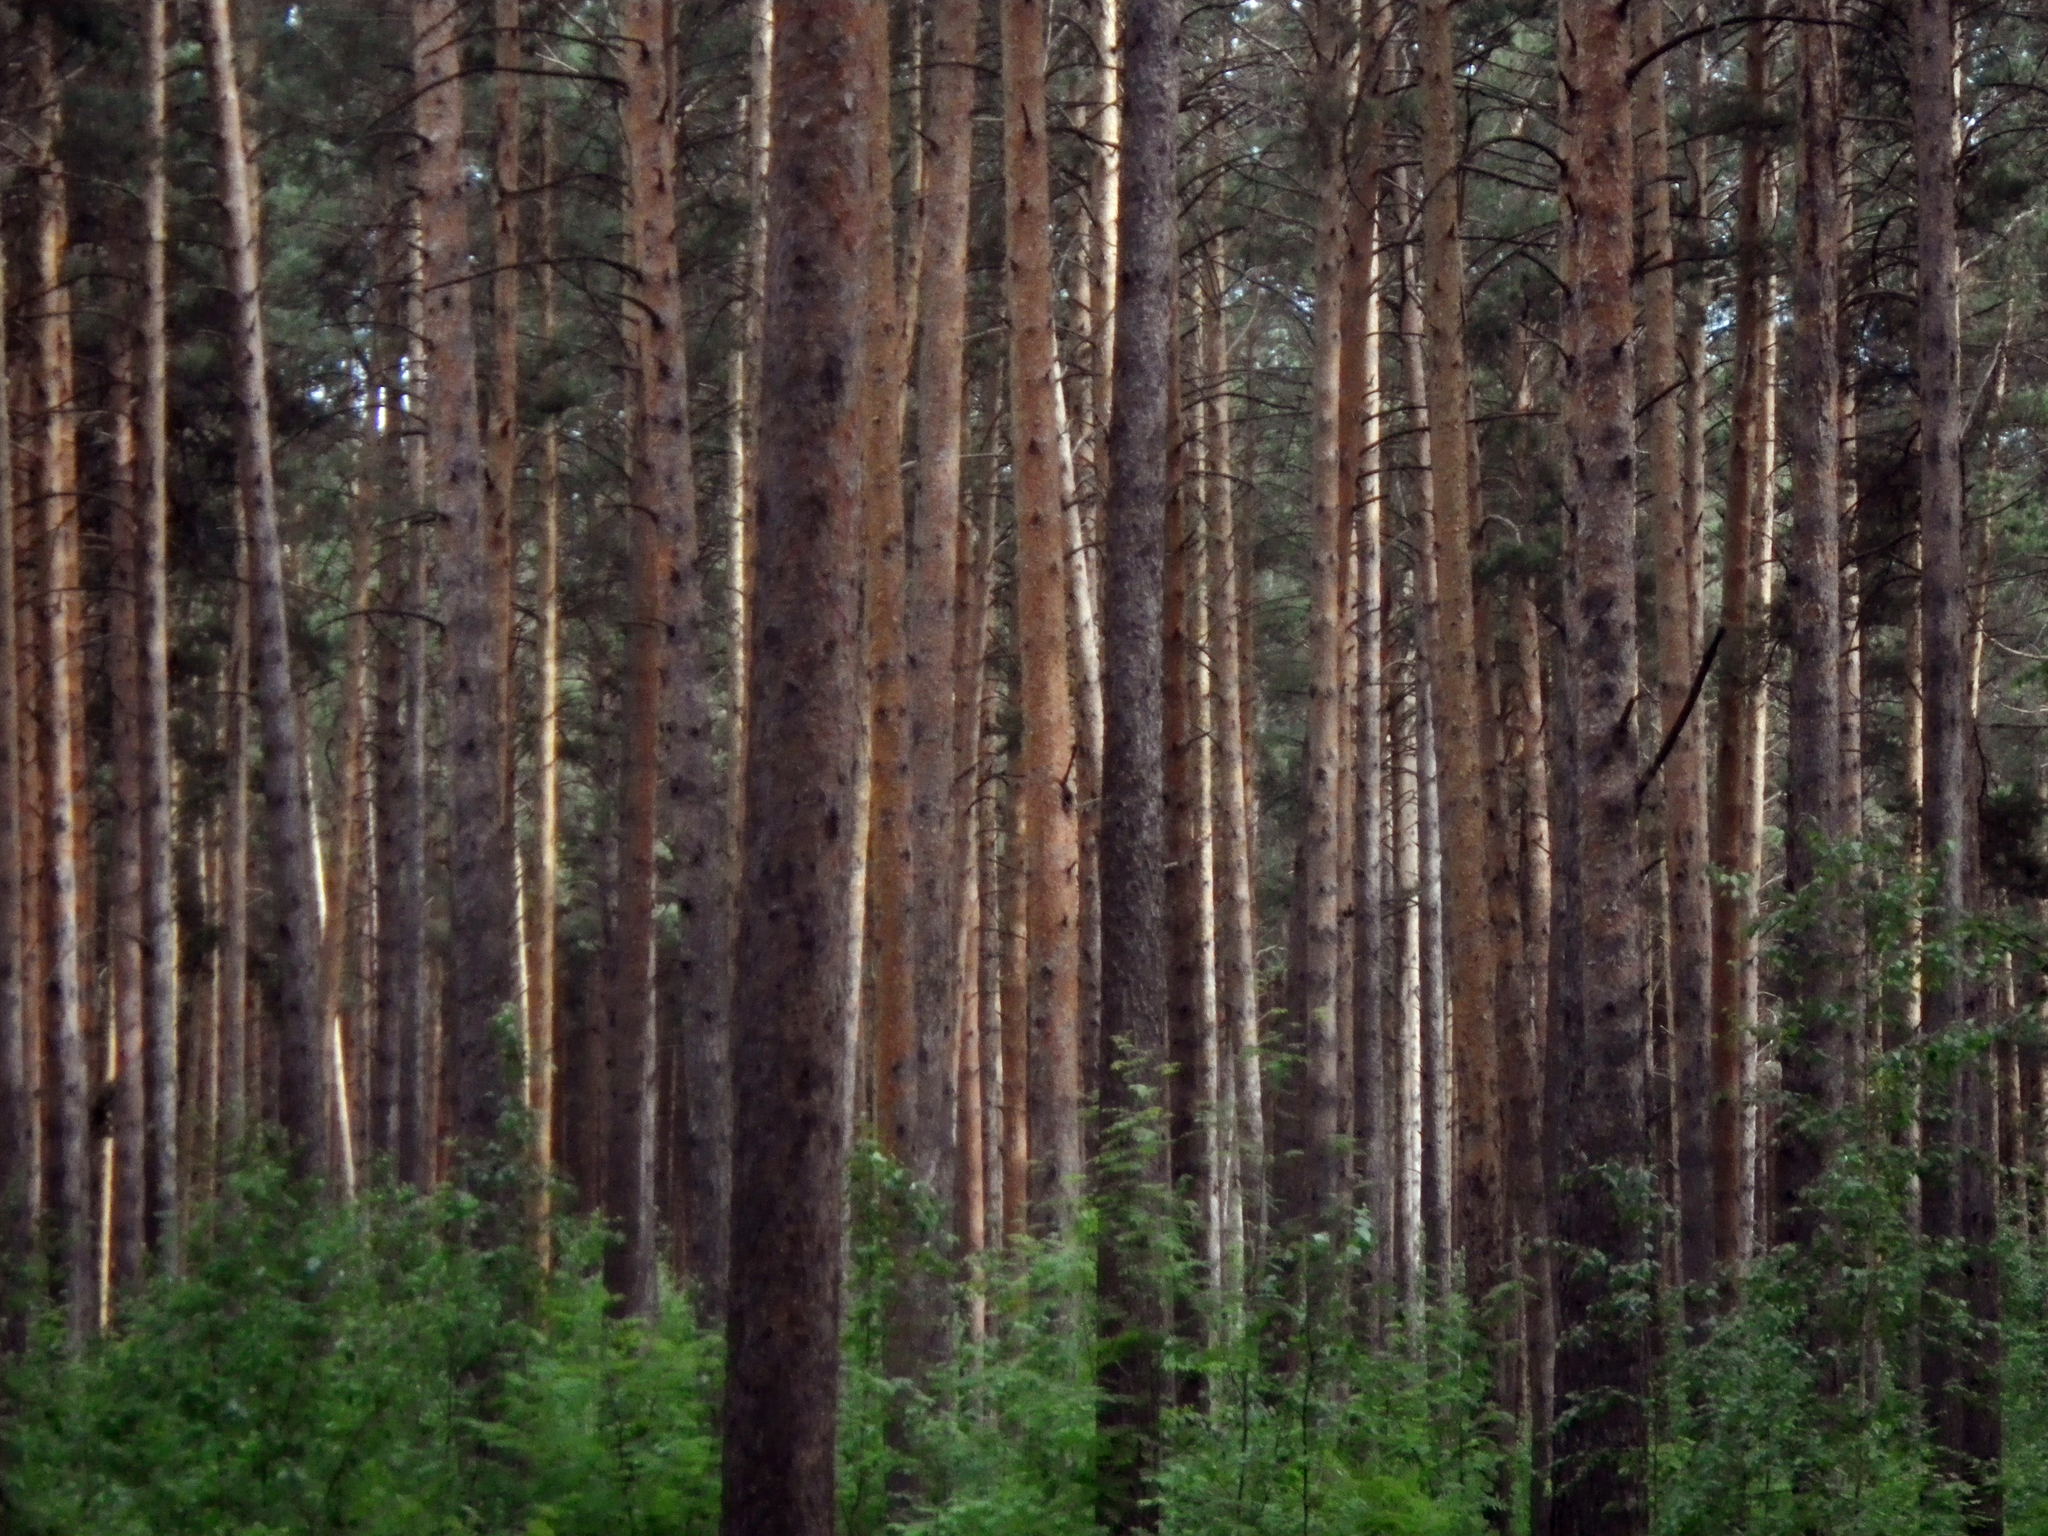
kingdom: Plantae
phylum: Tracheophyta
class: Pinopsida
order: Pinales
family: Pinaceae
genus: Pinus
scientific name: Pinus sylvestris
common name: Scots pine
